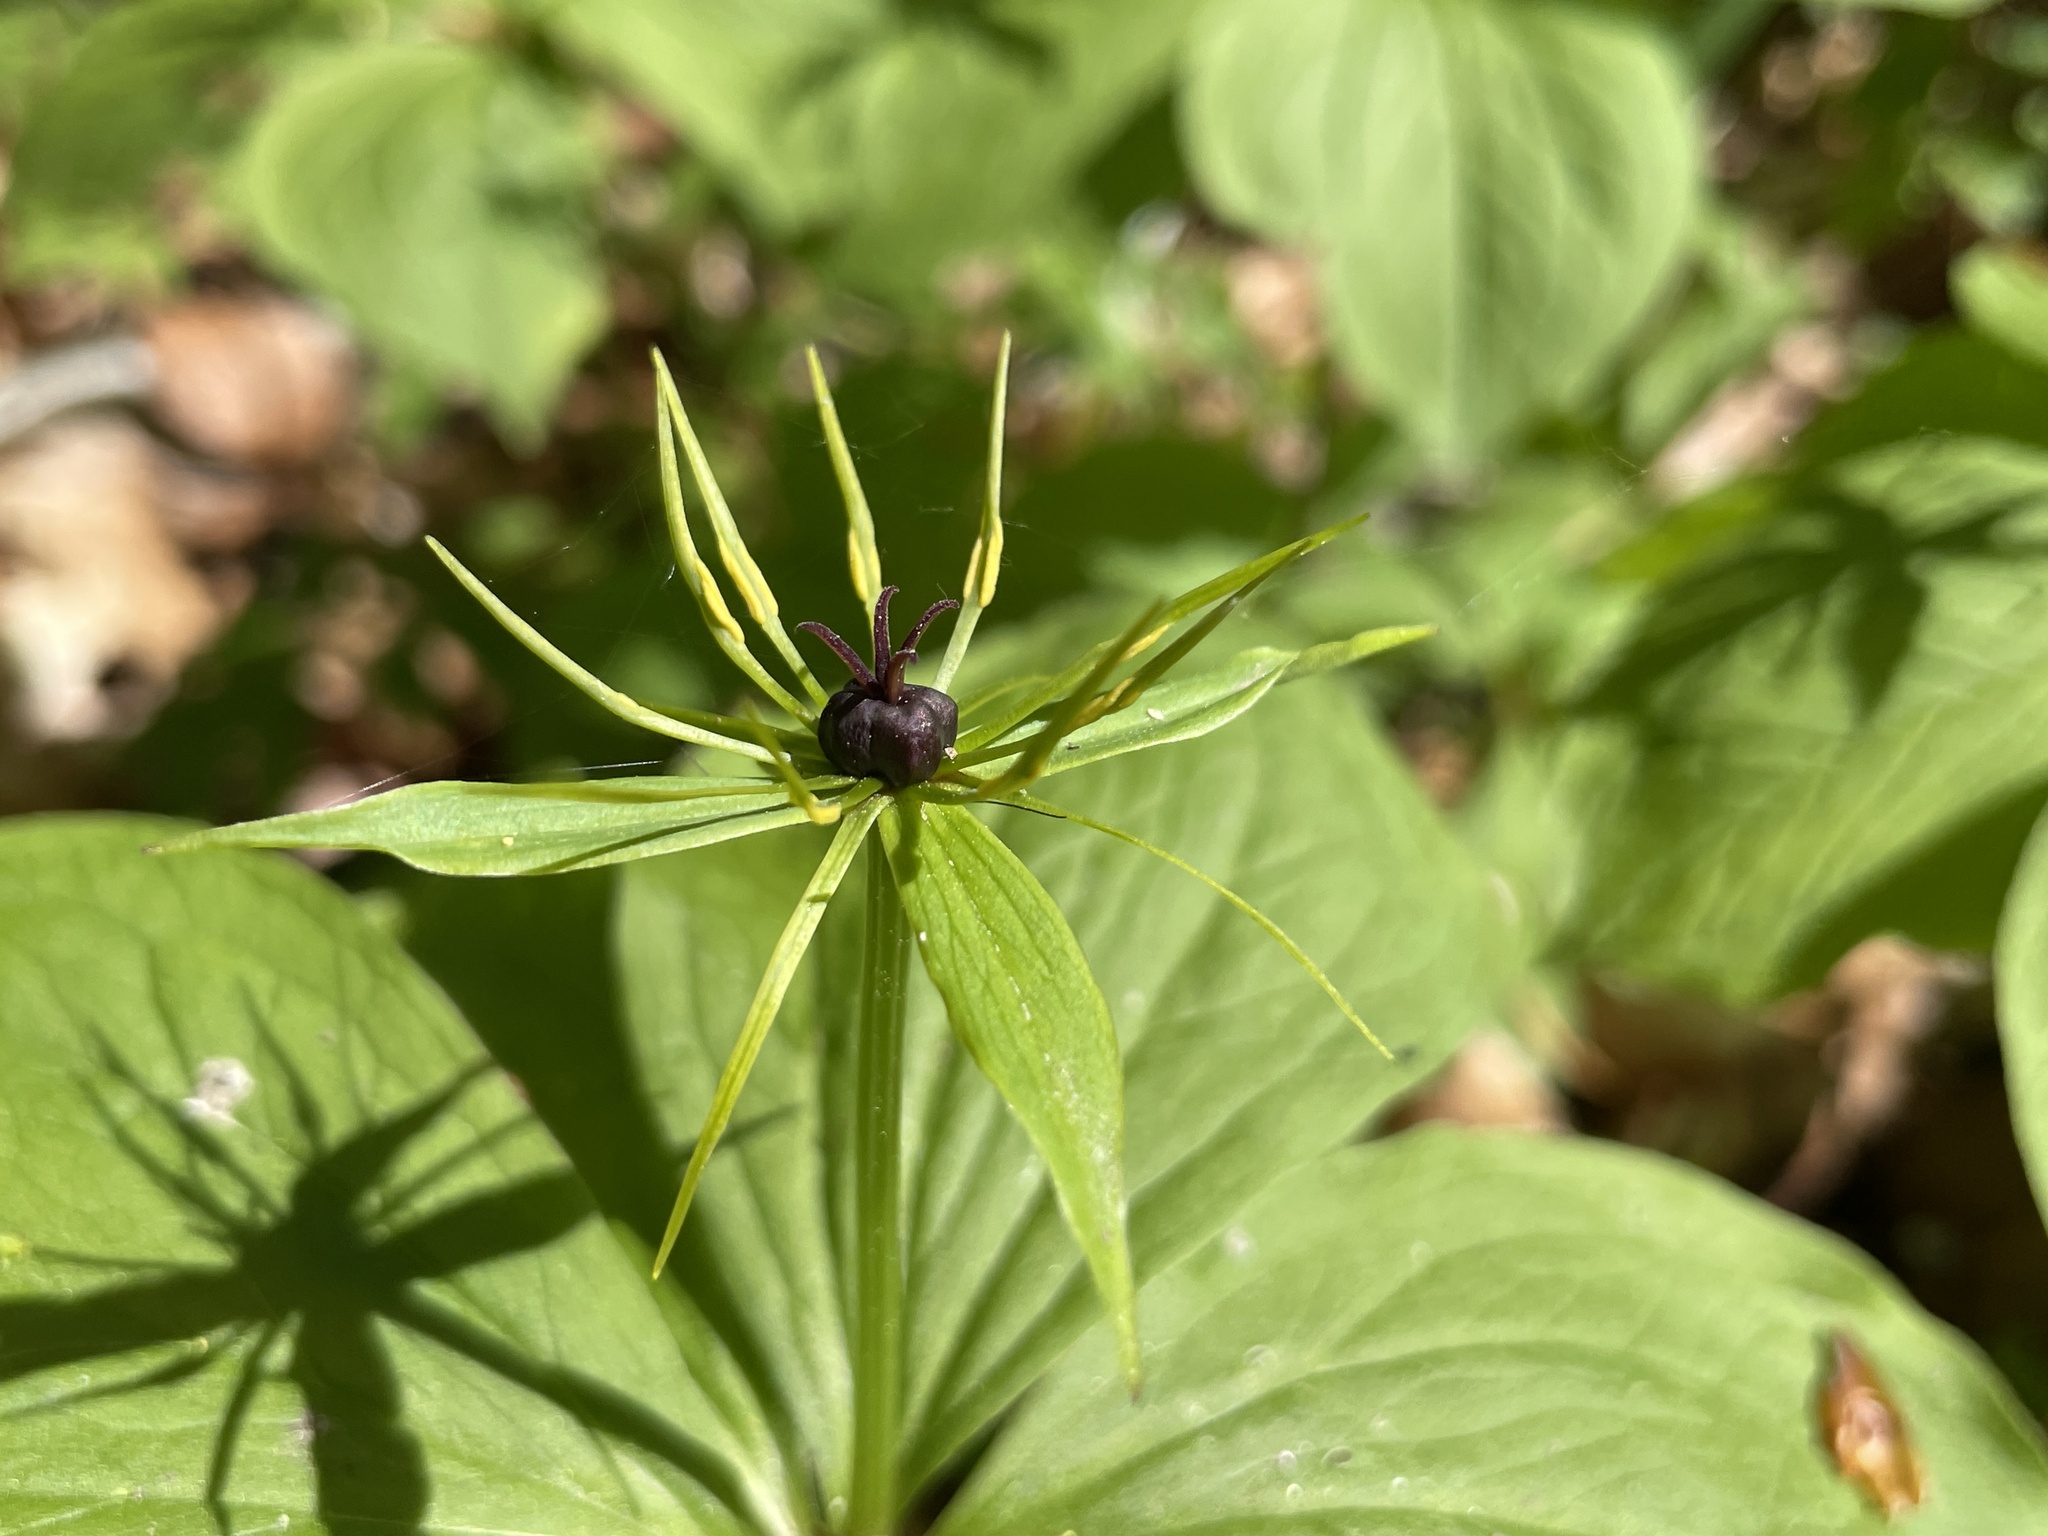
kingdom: Plantae
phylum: Tracheophyta
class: Liliopsida
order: Liliales
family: Melanthiaceae
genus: Paris
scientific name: Paris quadrifolia
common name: Herb-paris
